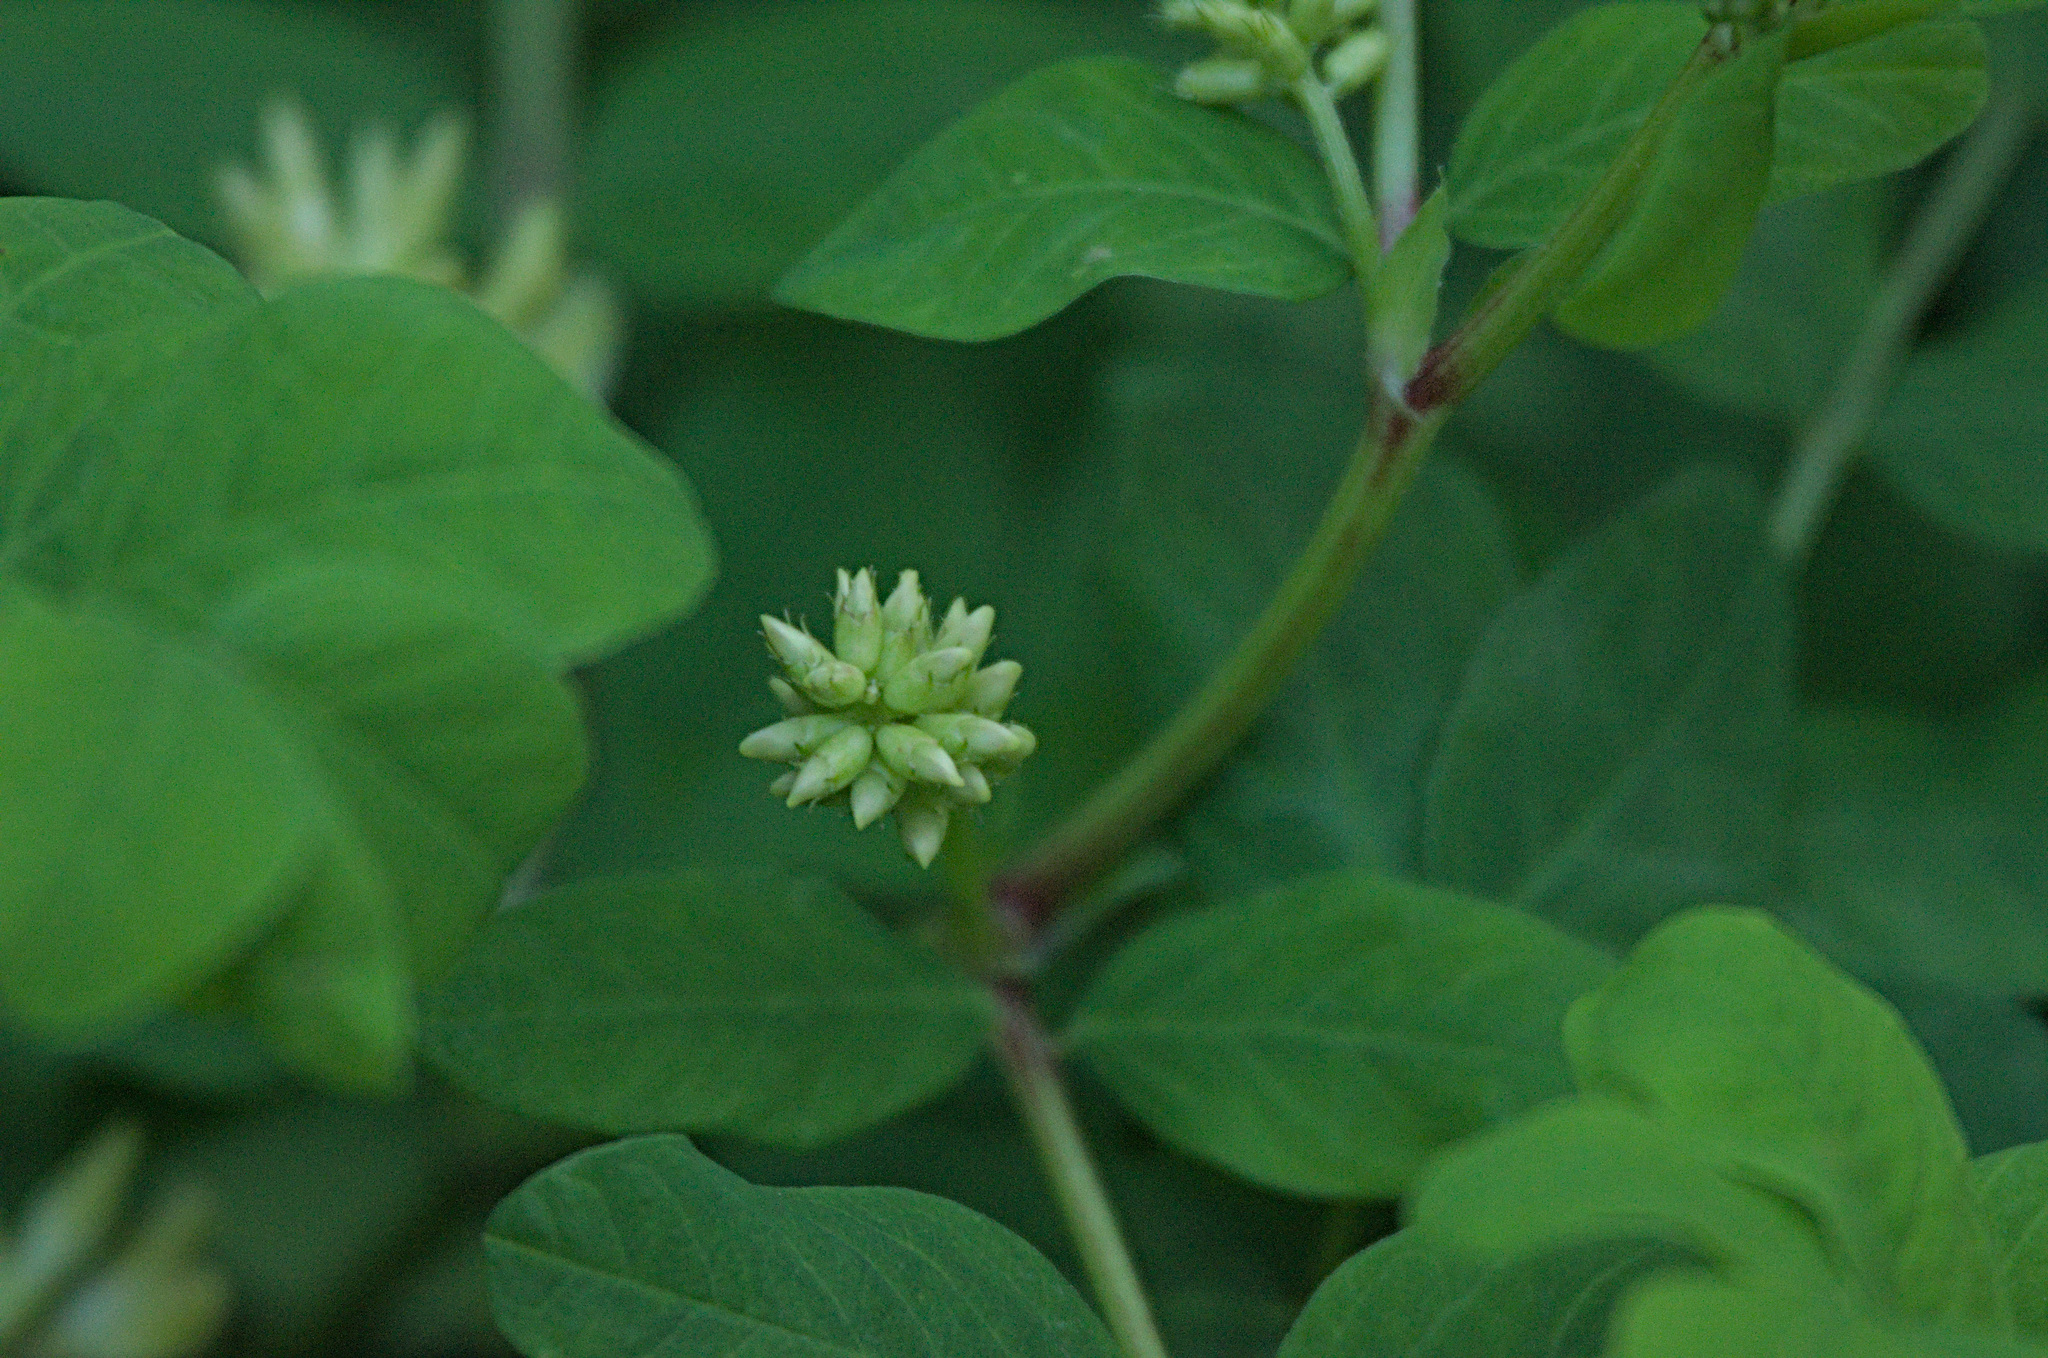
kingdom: Plantae
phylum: Tracheophyta
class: Magnoliopsida
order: Fabales
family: Fabaceae
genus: Astragalus
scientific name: Astragalus glycyphyllos
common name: Wild liquorice
